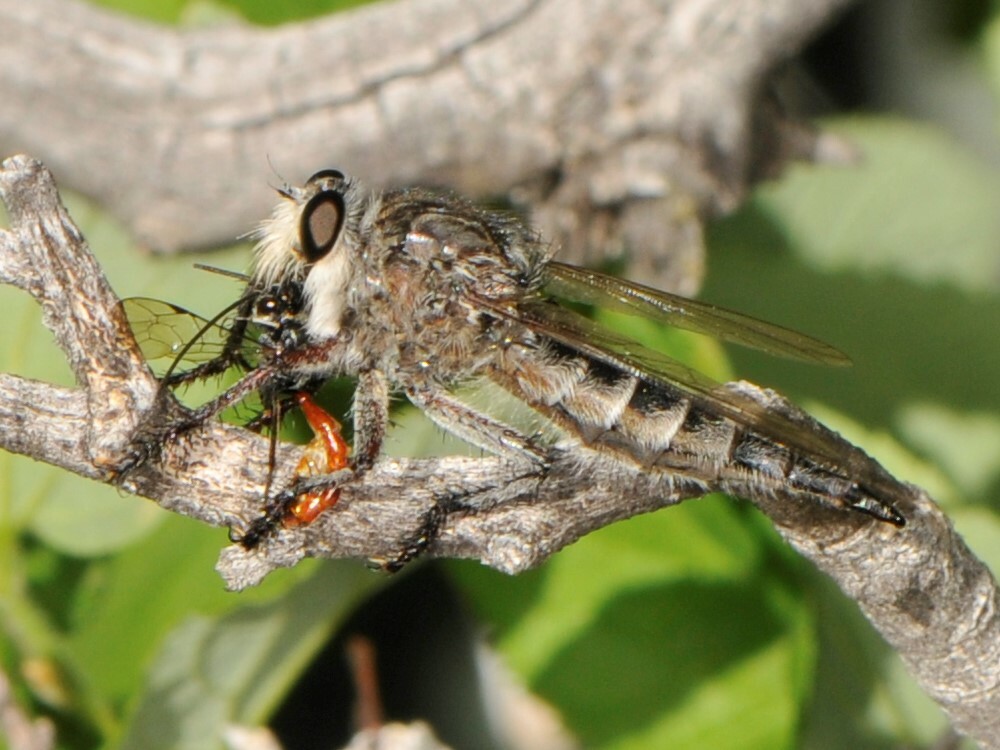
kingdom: Animalia
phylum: Arthropoda
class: Insecta
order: Diptera
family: Asilidae
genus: Promachus
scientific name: Promachus
